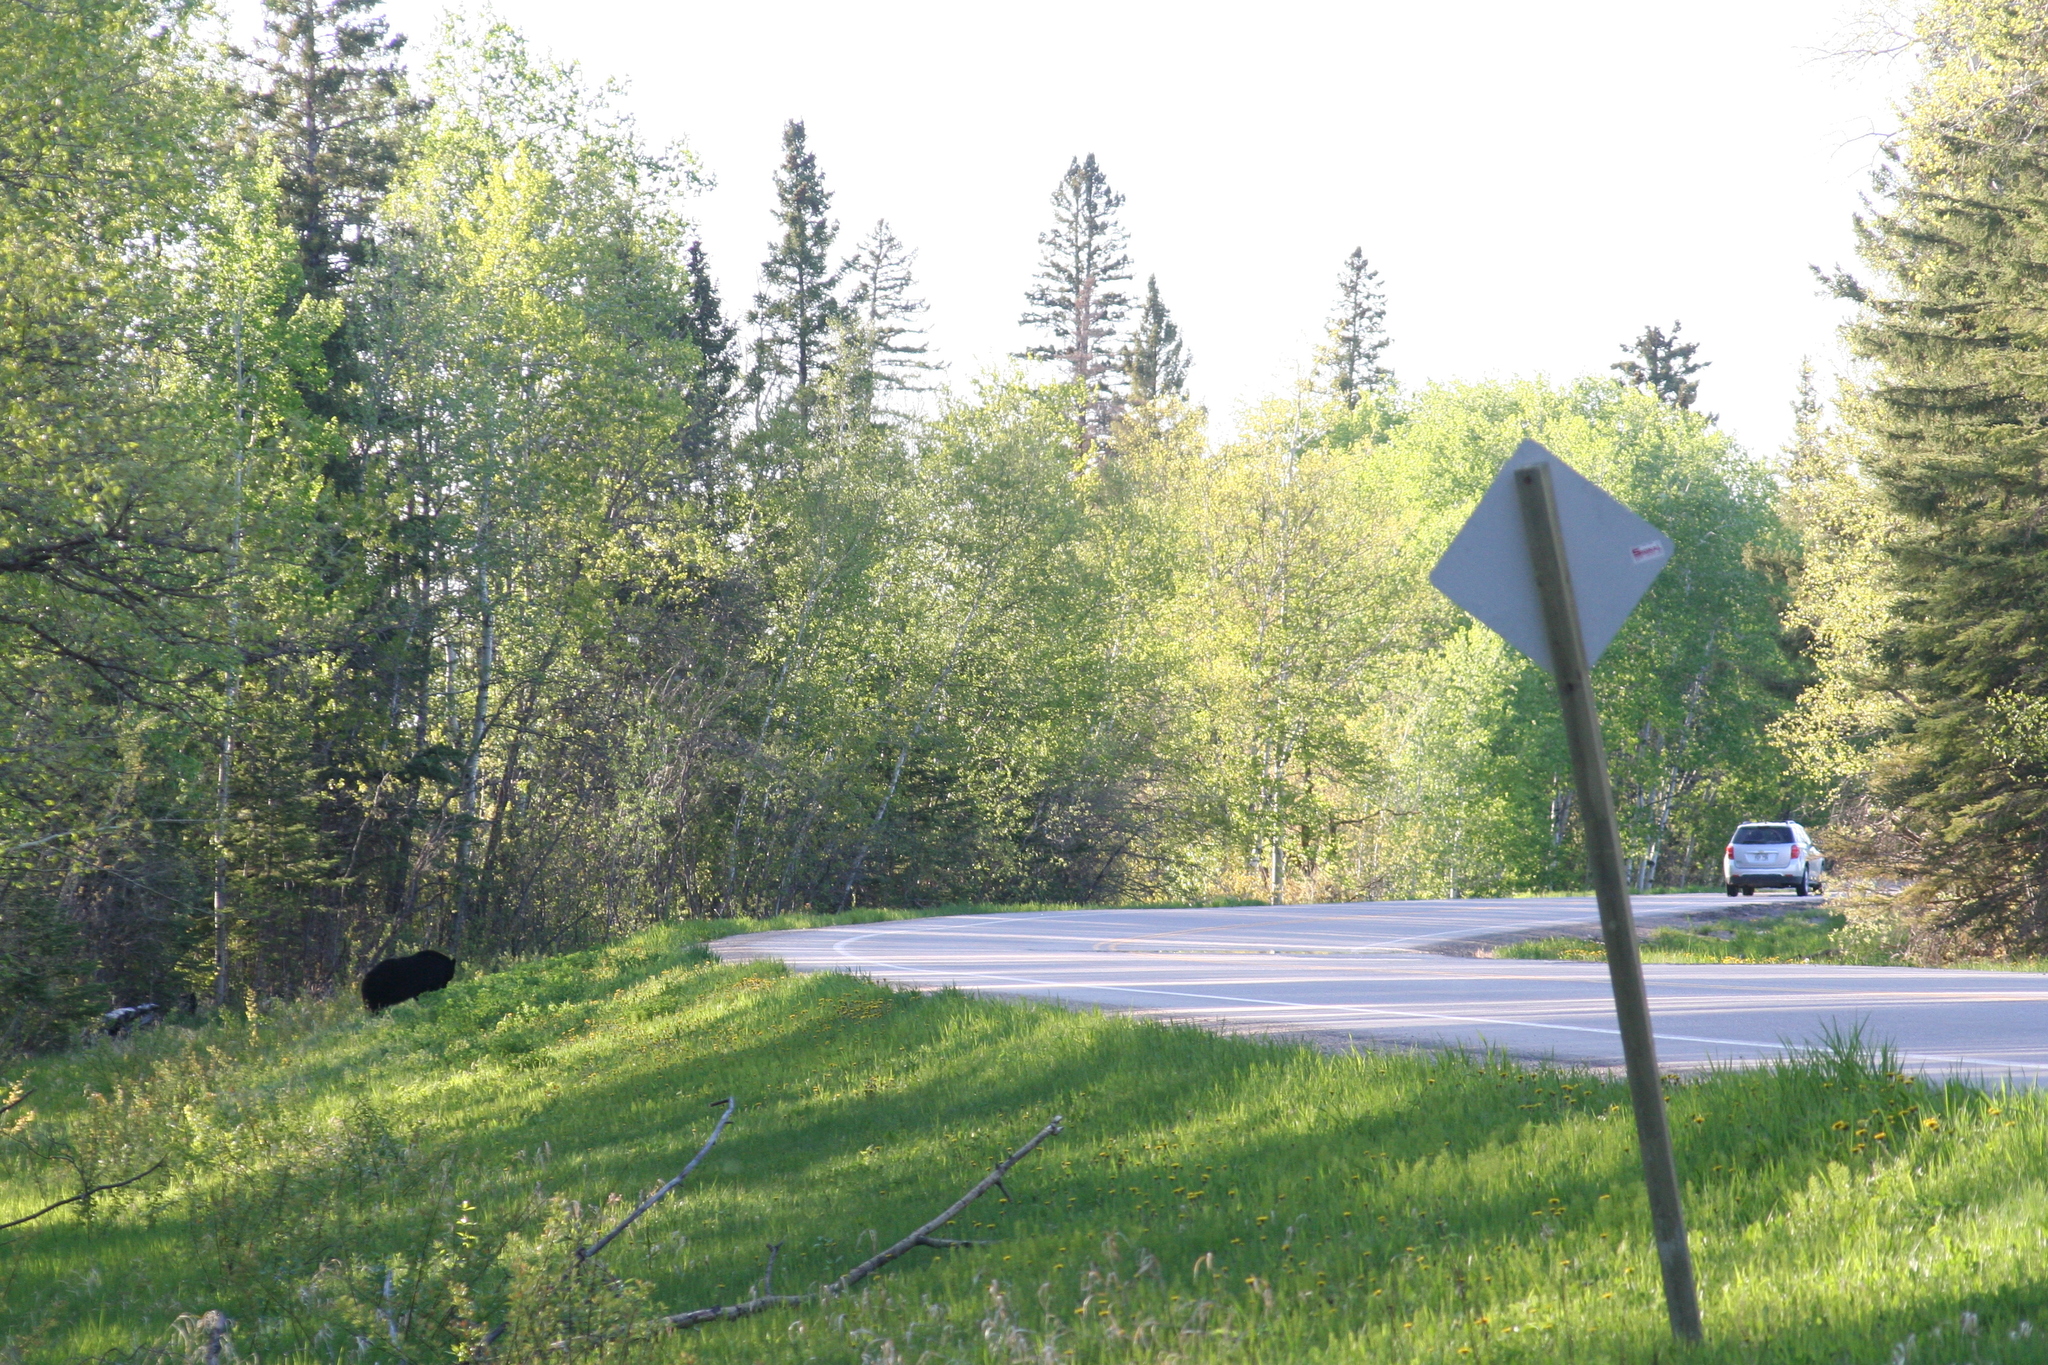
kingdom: Animalia
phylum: Chordata
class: Mammalia
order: Carnivora
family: Ursidae
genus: Ursus
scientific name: Ursus americanus
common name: American black bear
